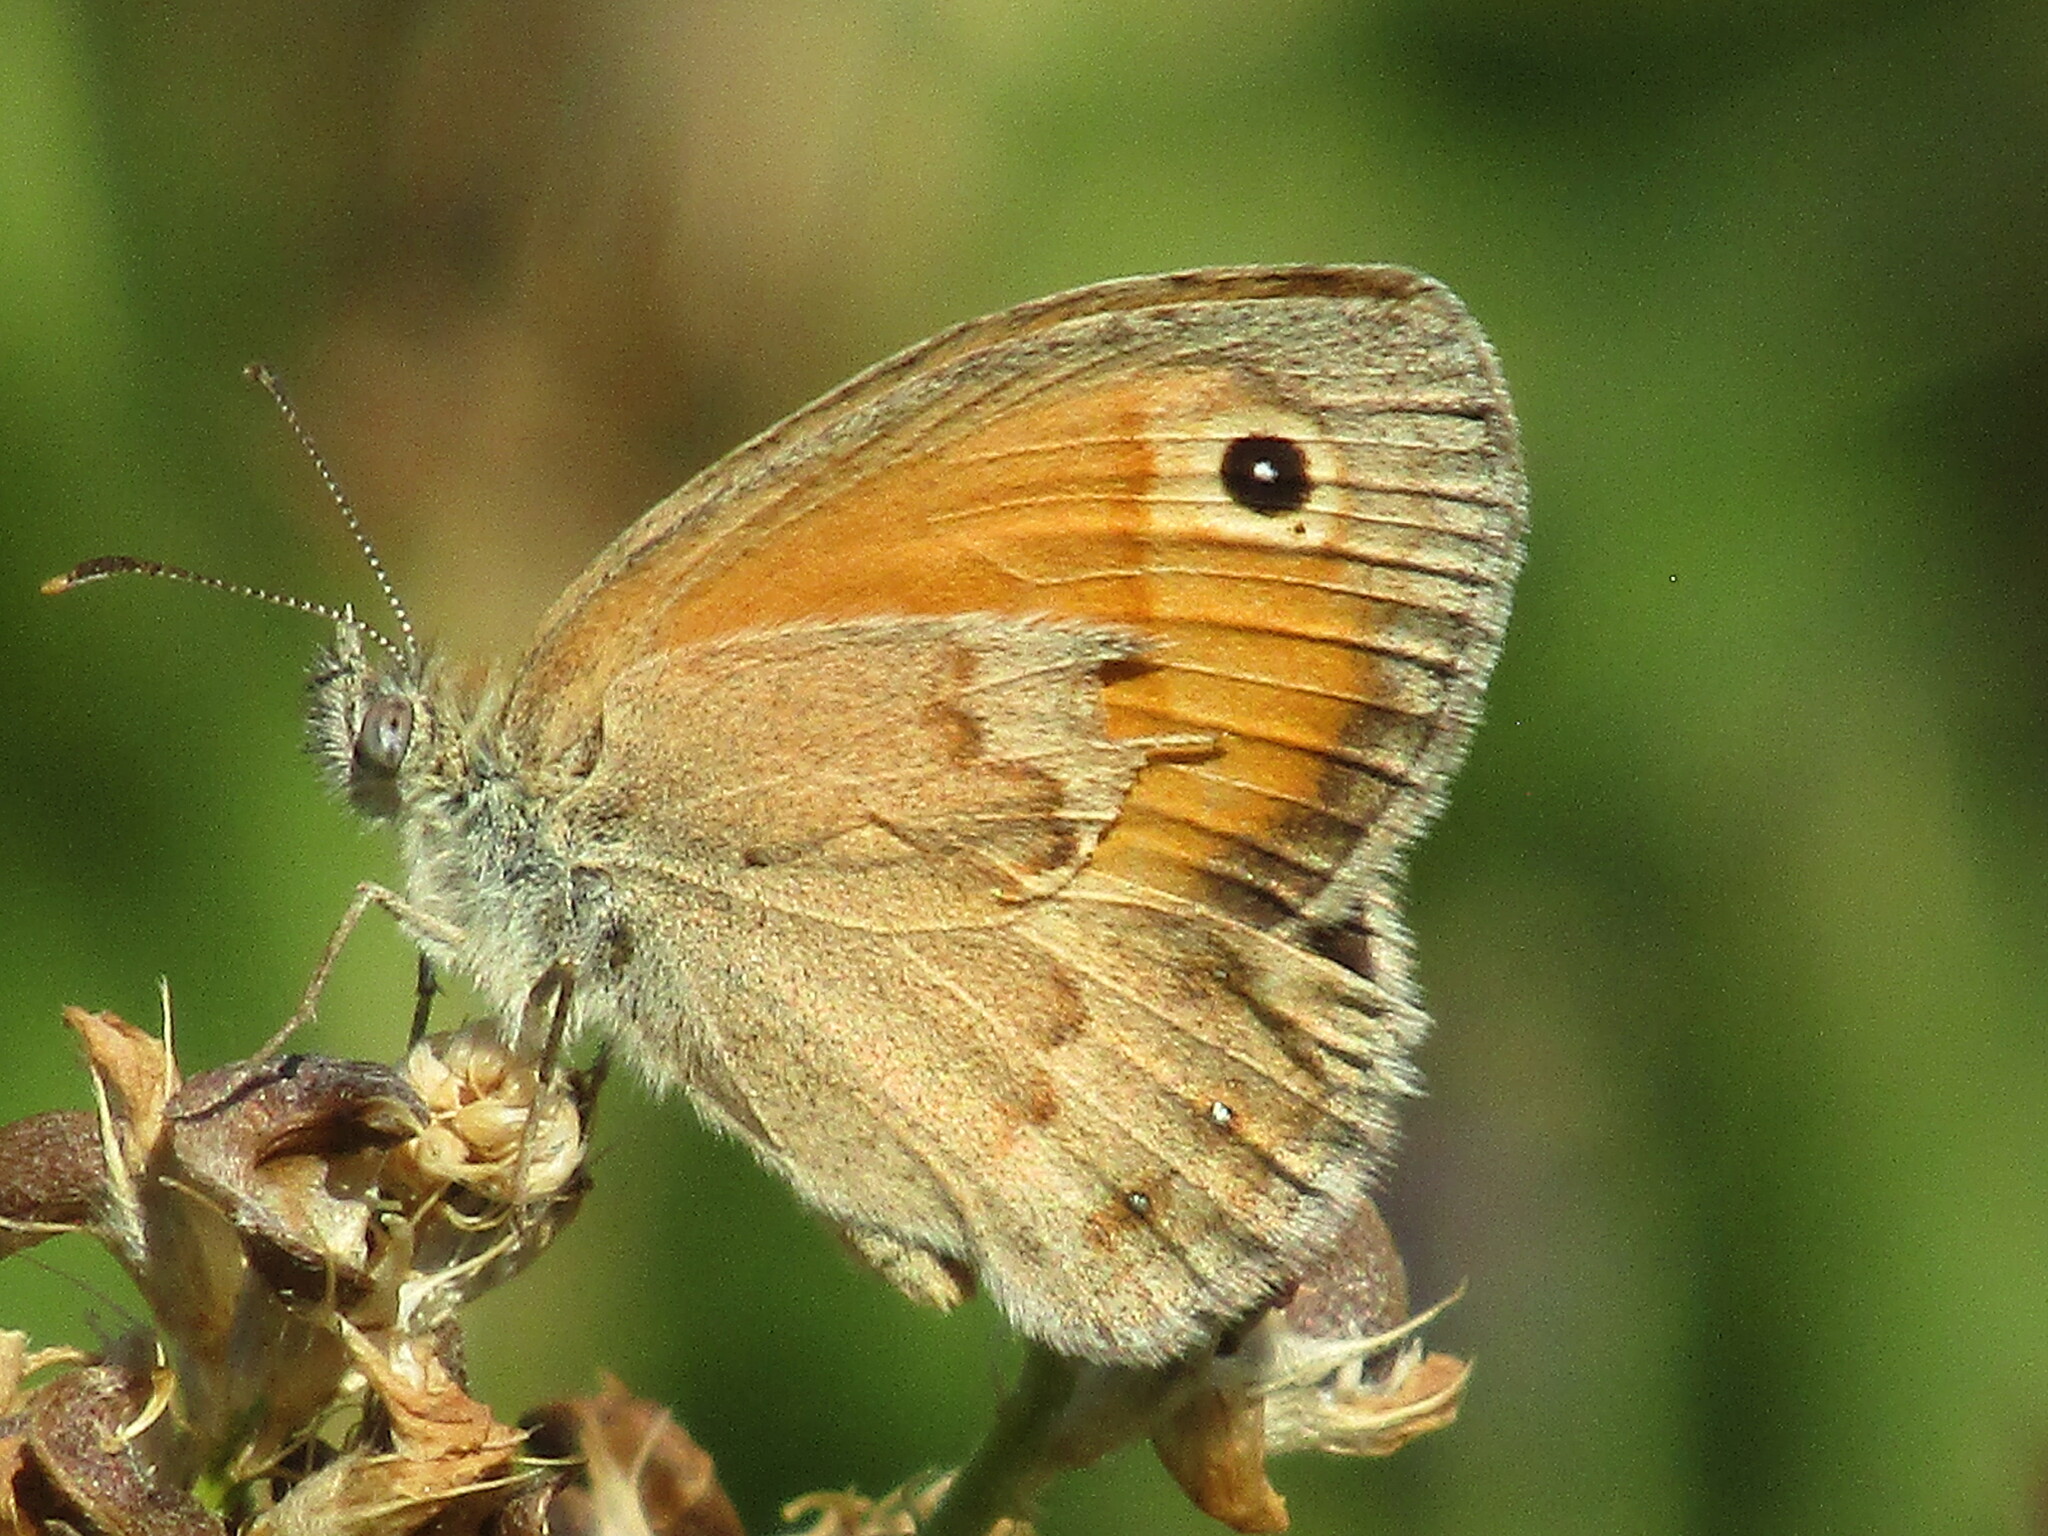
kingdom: Animalia
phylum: Arthropoda
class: Insecta
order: Lepidoptera
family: Nymphalidae
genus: Coenonympha
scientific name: Coenonympha pamphilus
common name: Small heath
